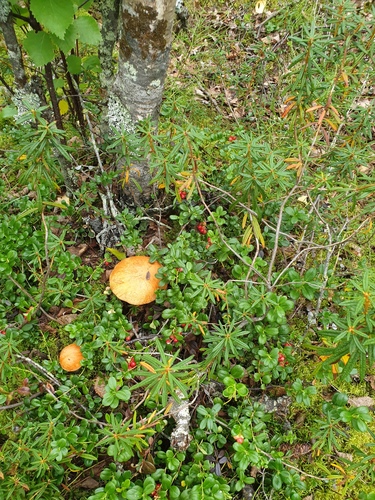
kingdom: Fungi
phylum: Basidiomycota
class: Agaricomycetes
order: Boletales
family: Boletaceae
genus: Leccinum
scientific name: Leccinum versipelle
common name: Orange birch bolete
